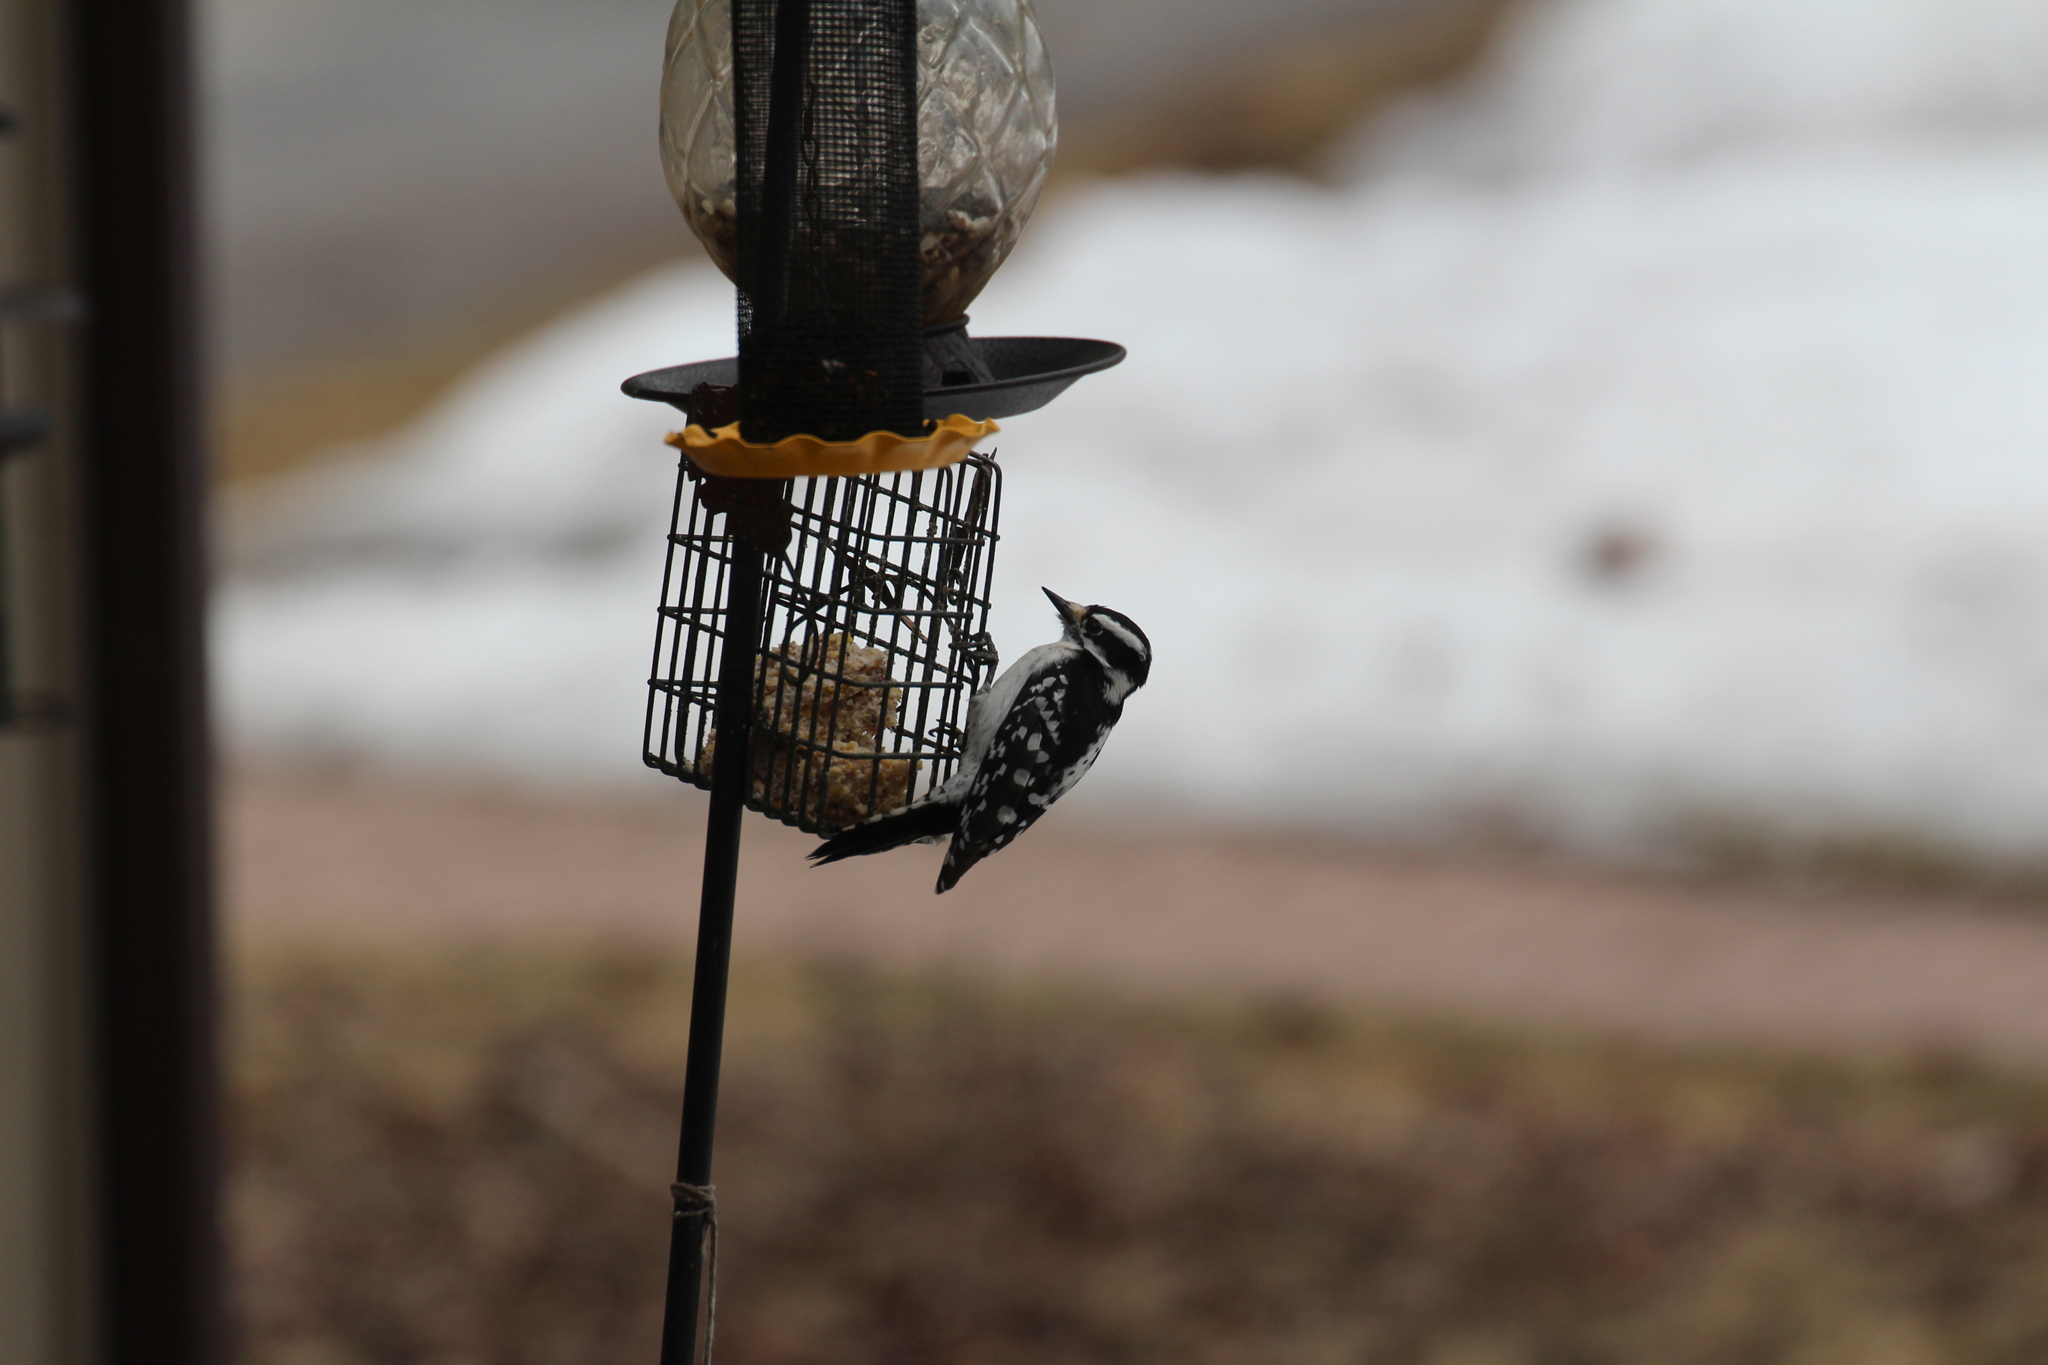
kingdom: Animalia
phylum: Chordata
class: Aves
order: Piciformes
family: Picidae
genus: Dryobates
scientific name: Dryobates pubescens
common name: Downy woodpecker
